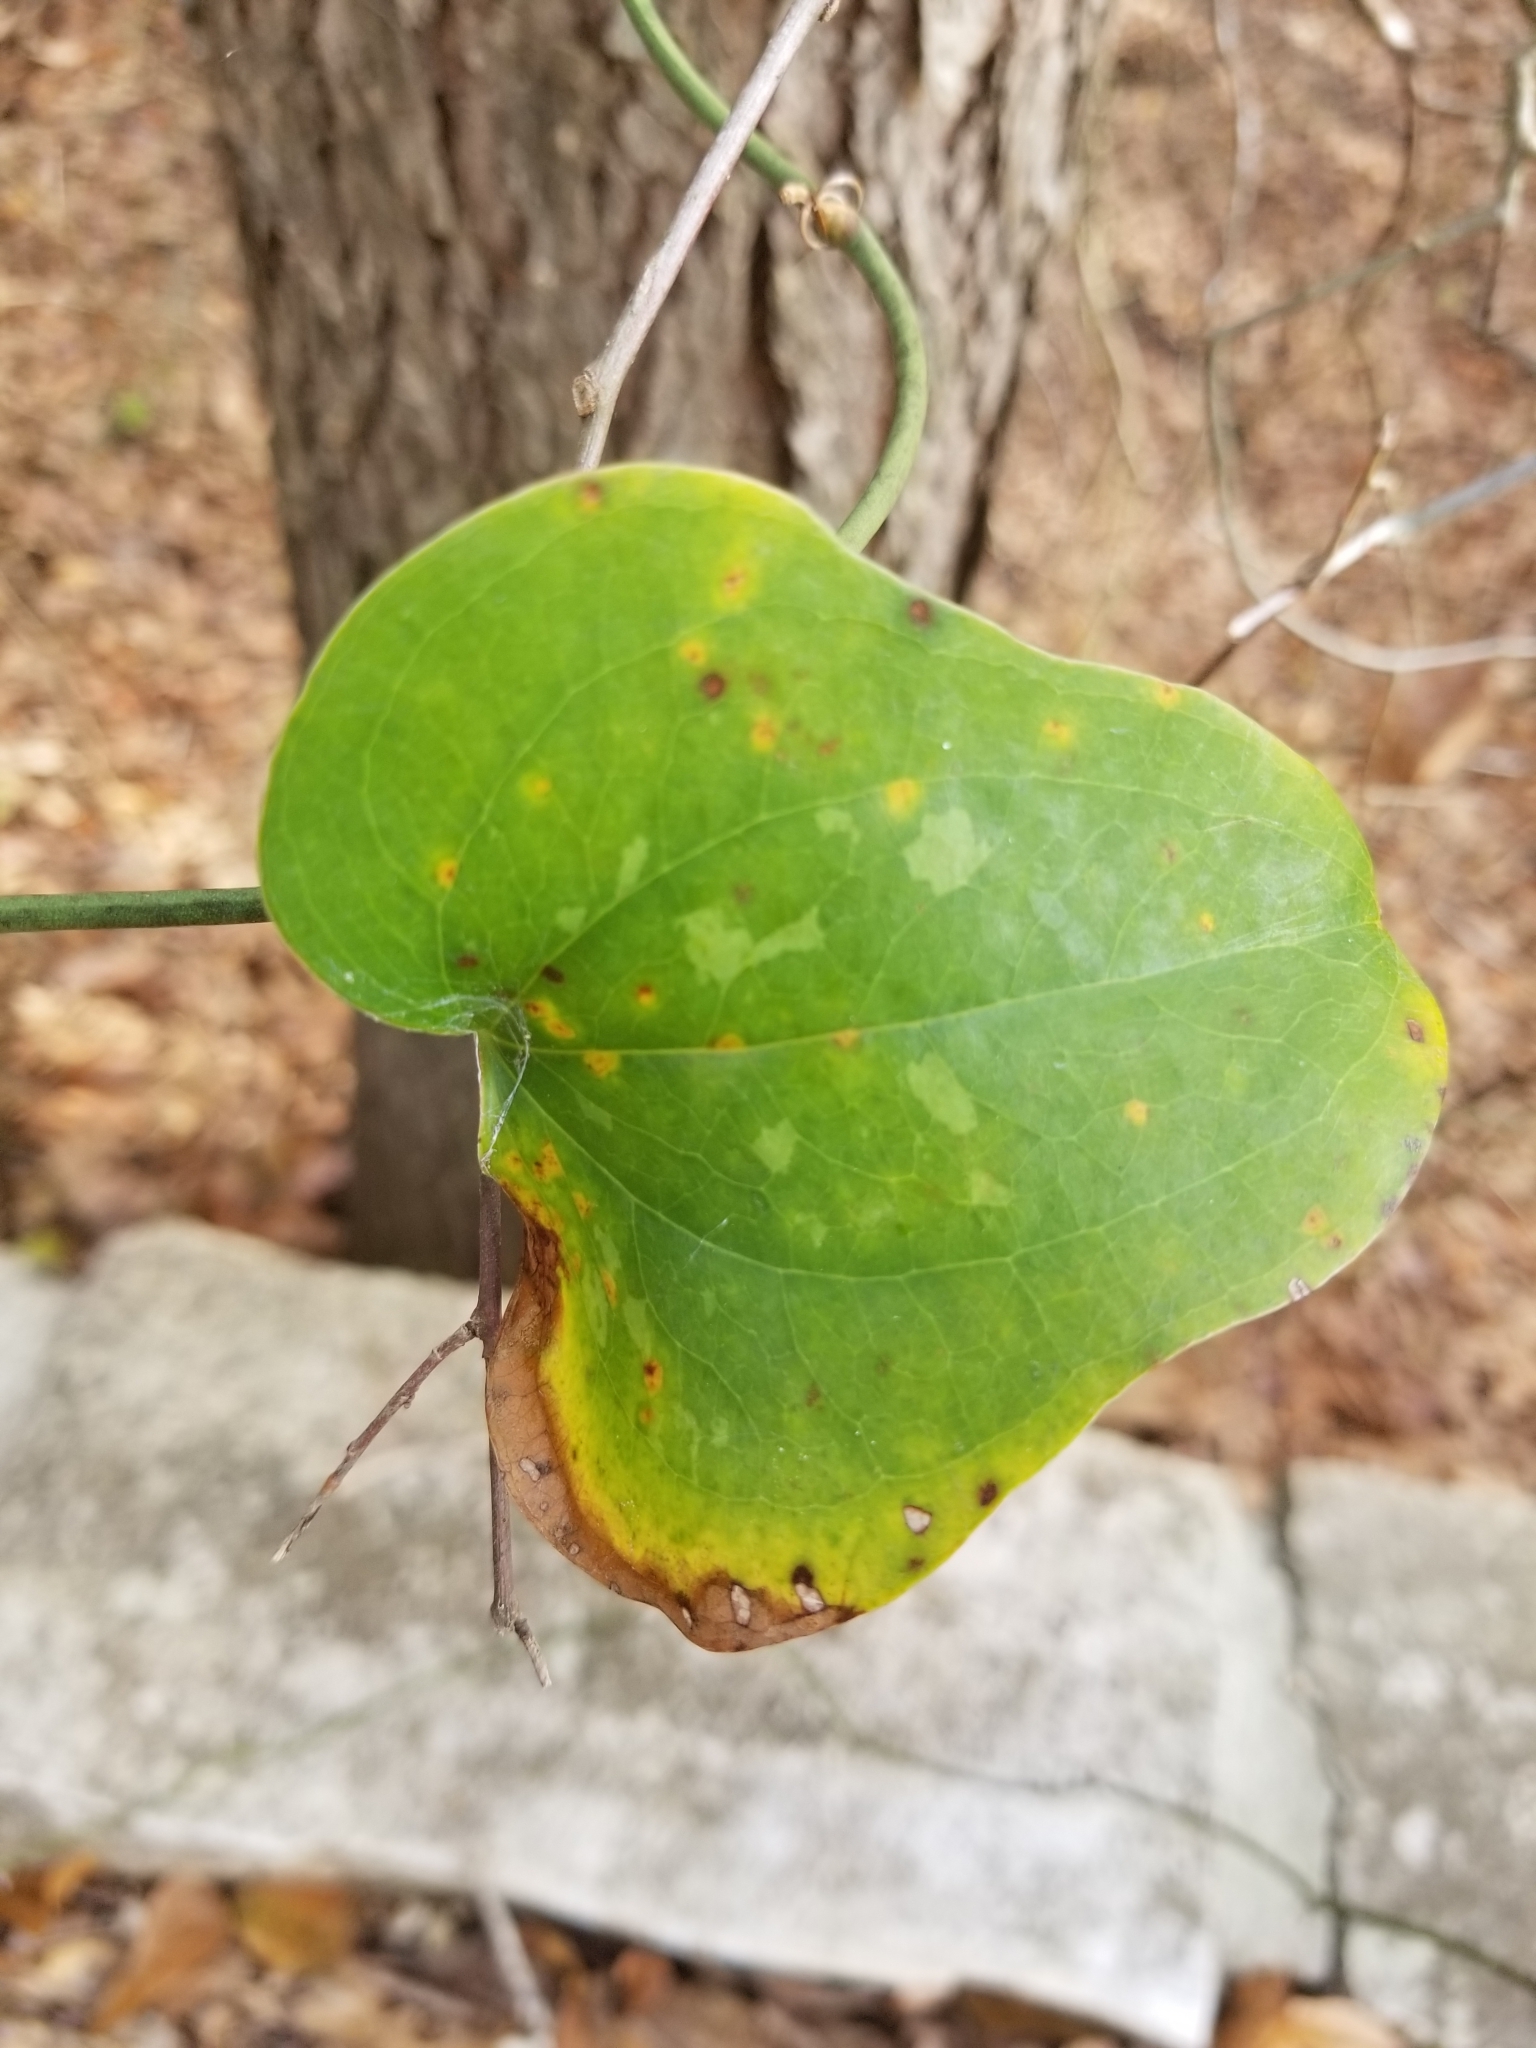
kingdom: Plantae
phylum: Tracheophyta
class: Liliopsida
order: Liliales
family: Smilacaceae
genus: Smilax
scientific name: Smilax bona-nox
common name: Catbrier
